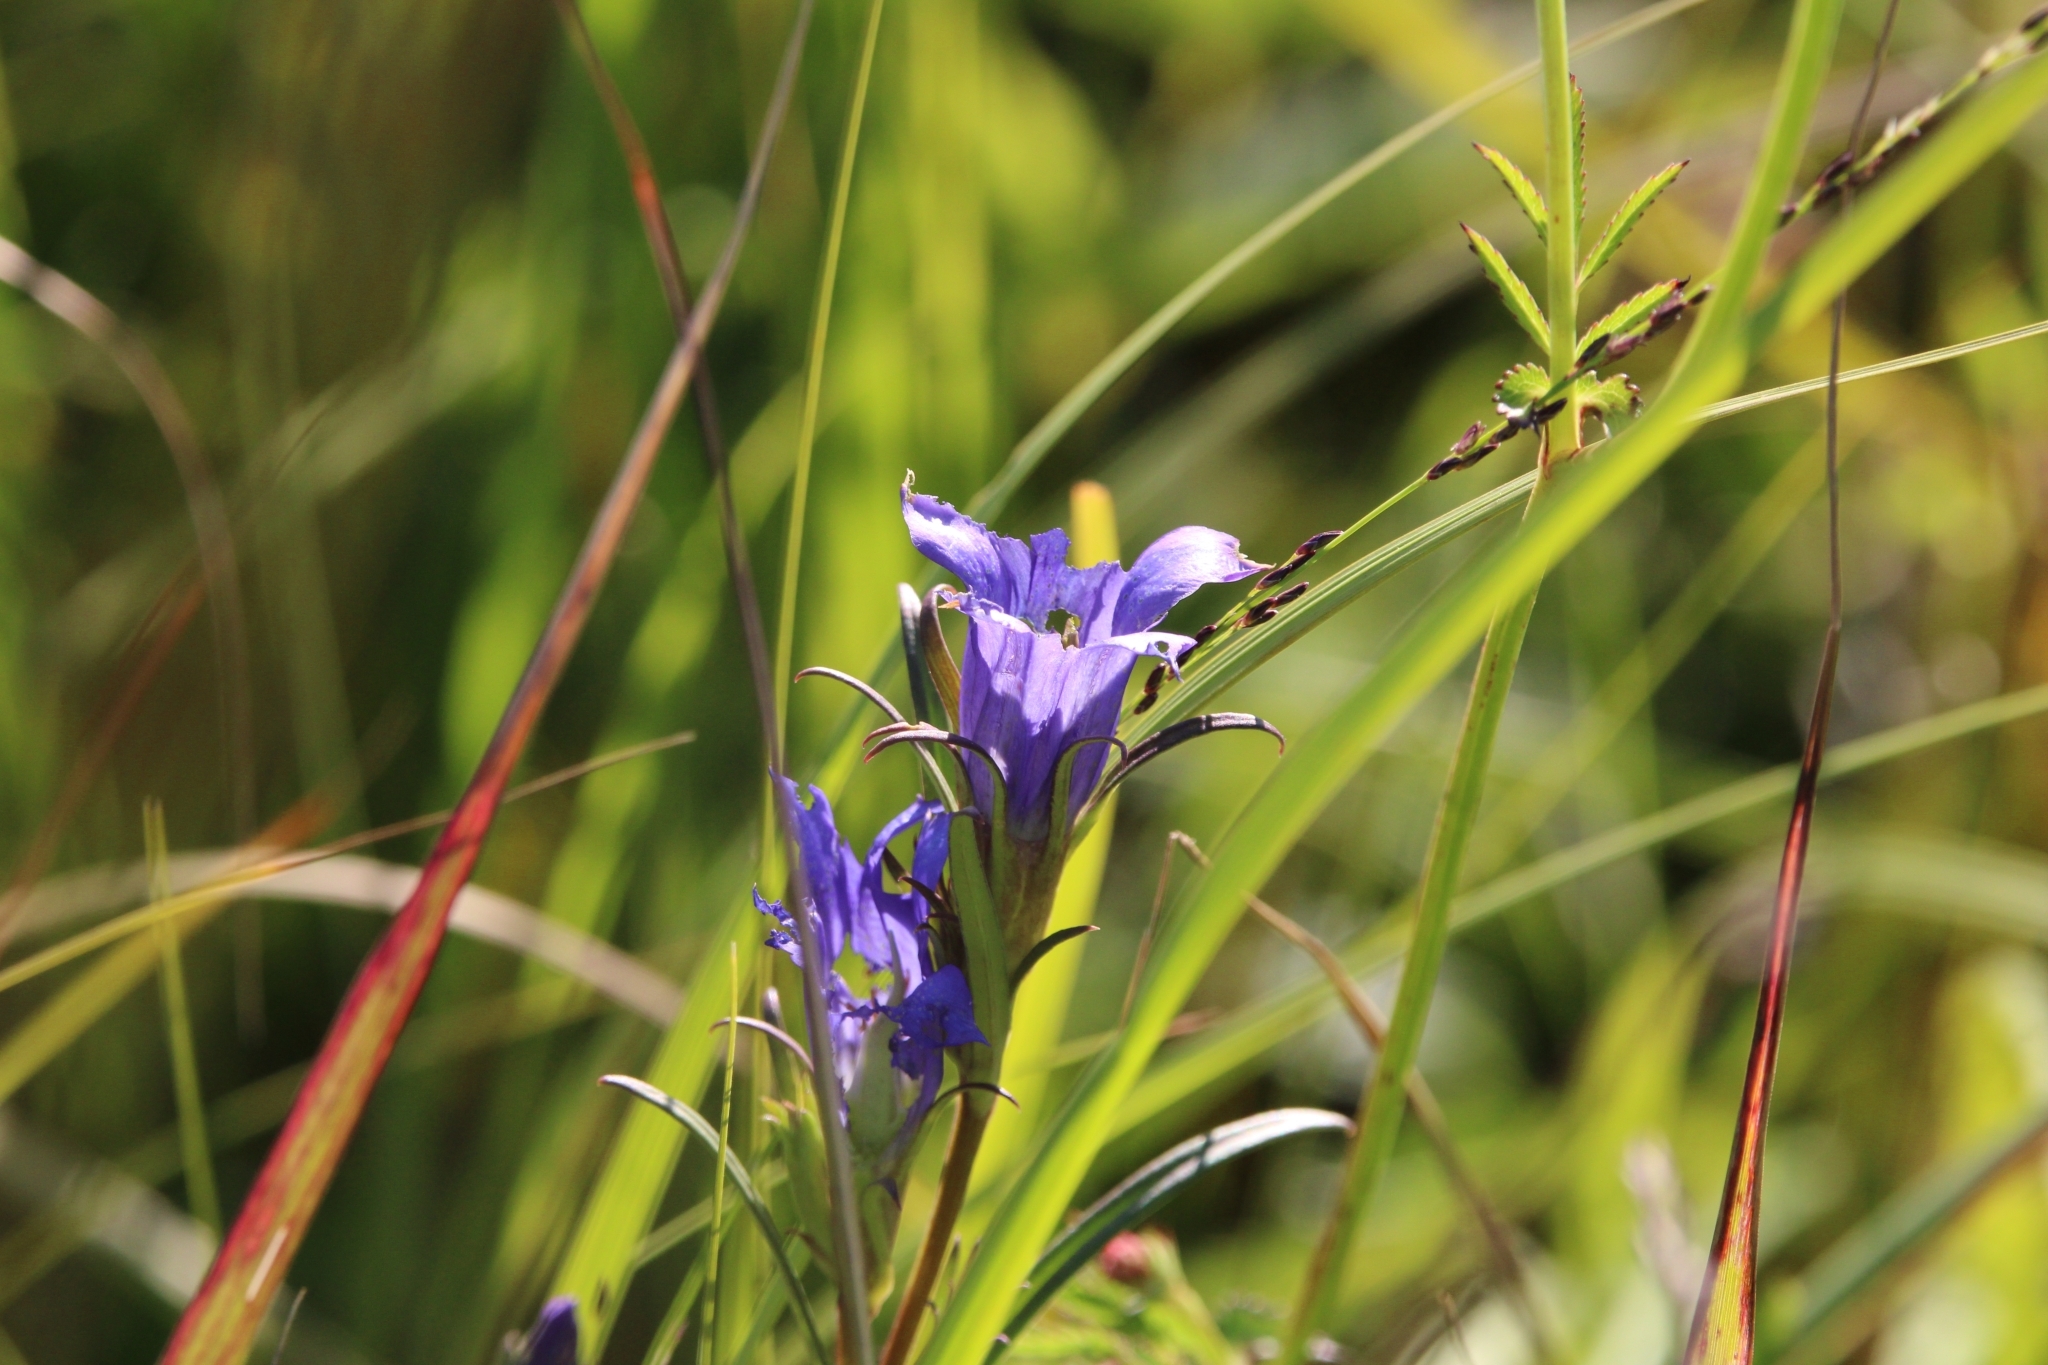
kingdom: Plantae
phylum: Tracheophyta
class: Magnoliopsida
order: Gentianales
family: Gentianaceae
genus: Gentiana
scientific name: Gentiana pneumonanthe
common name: Marsh gentian
